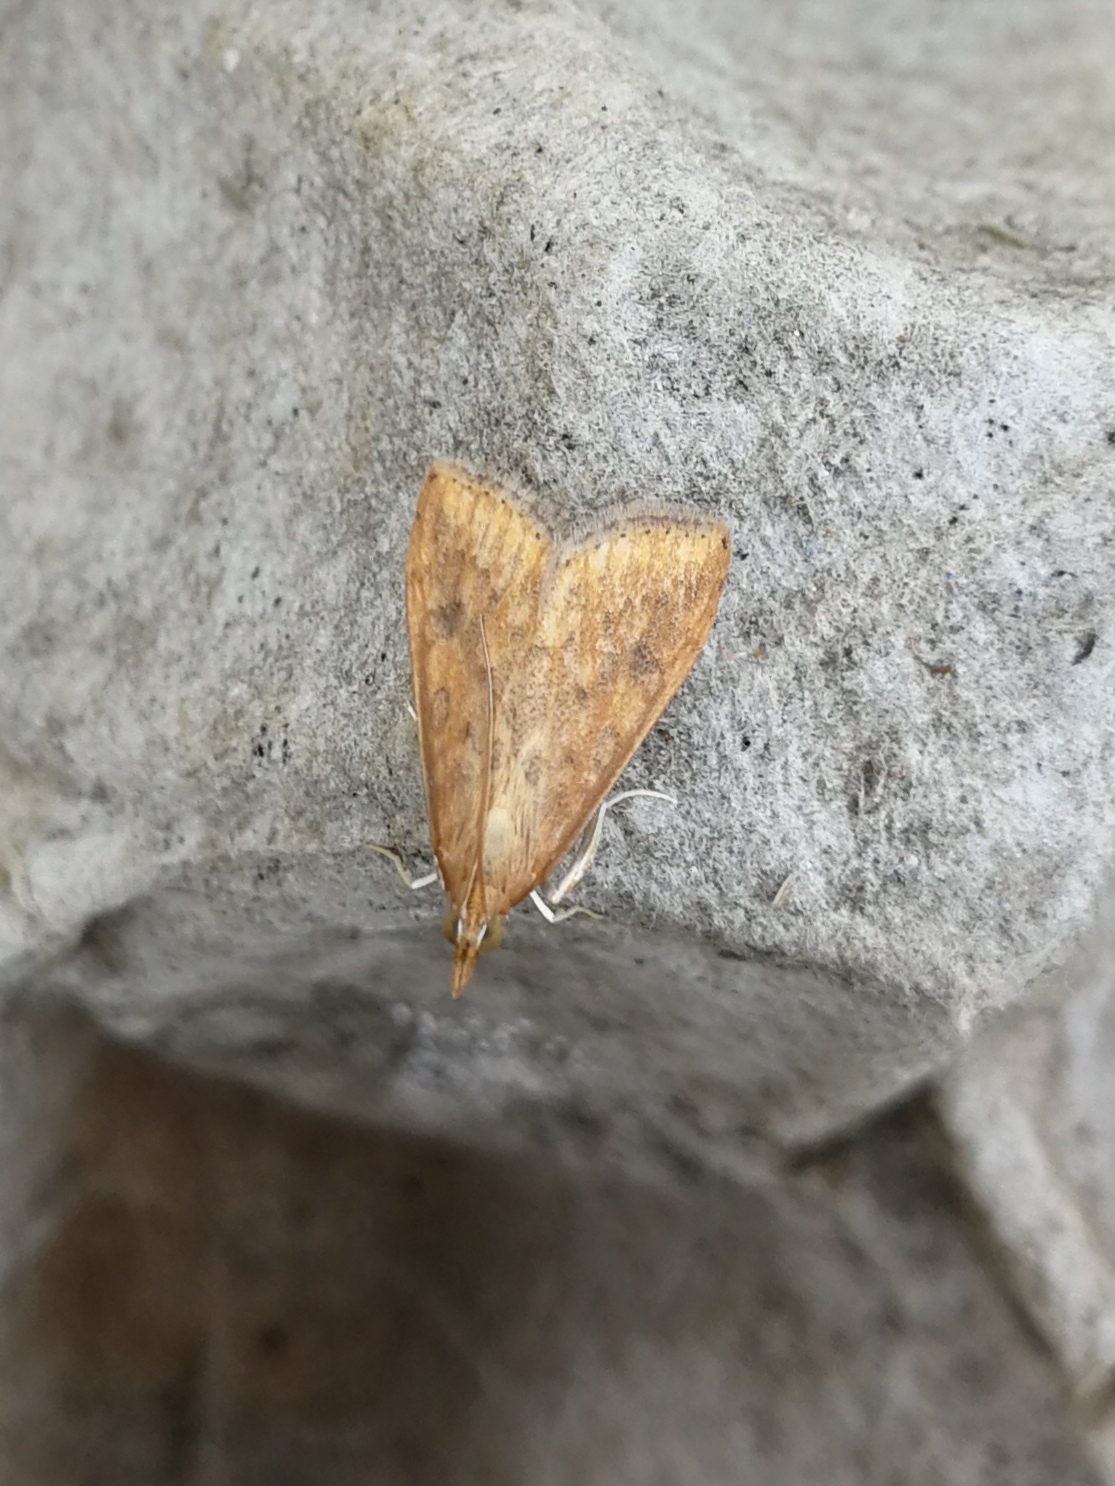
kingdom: Animalia
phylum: Arthropoda
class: Insecta
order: Lepidoptera
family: Crambidae
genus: Udea
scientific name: Udea ferrugalis
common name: Rusty dot
